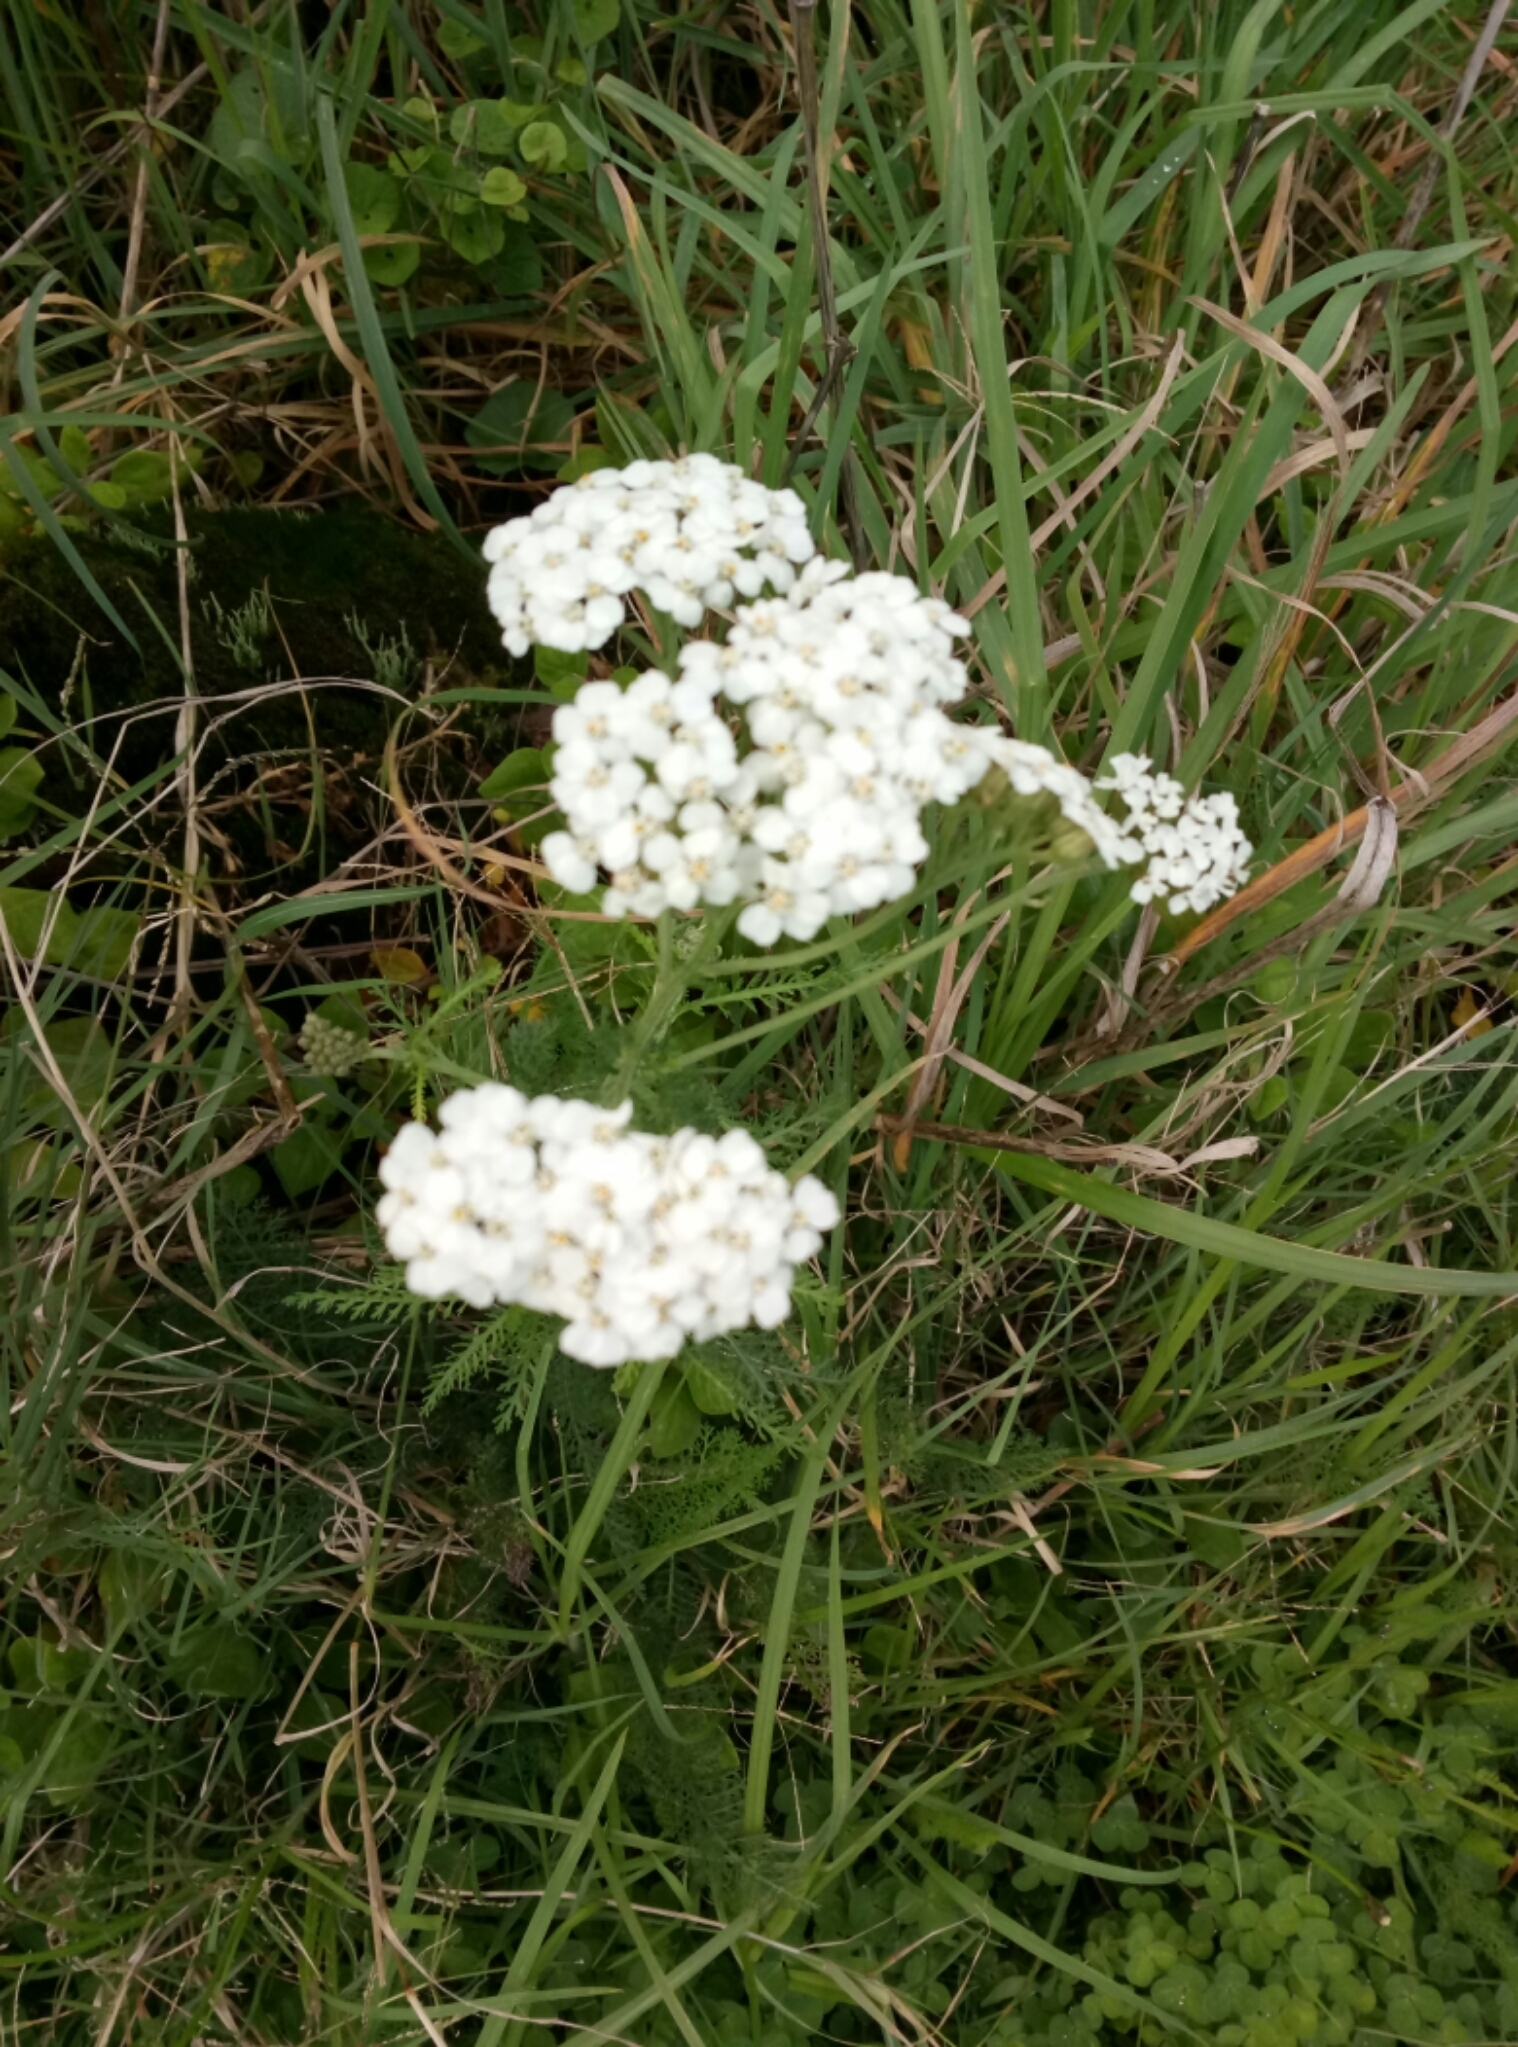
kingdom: Plantae
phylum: Tracheophyta
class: Magnoliopsida
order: Asterales
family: Asteraceae
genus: Achillea
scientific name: Achillea millefolium
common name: Yarrow
